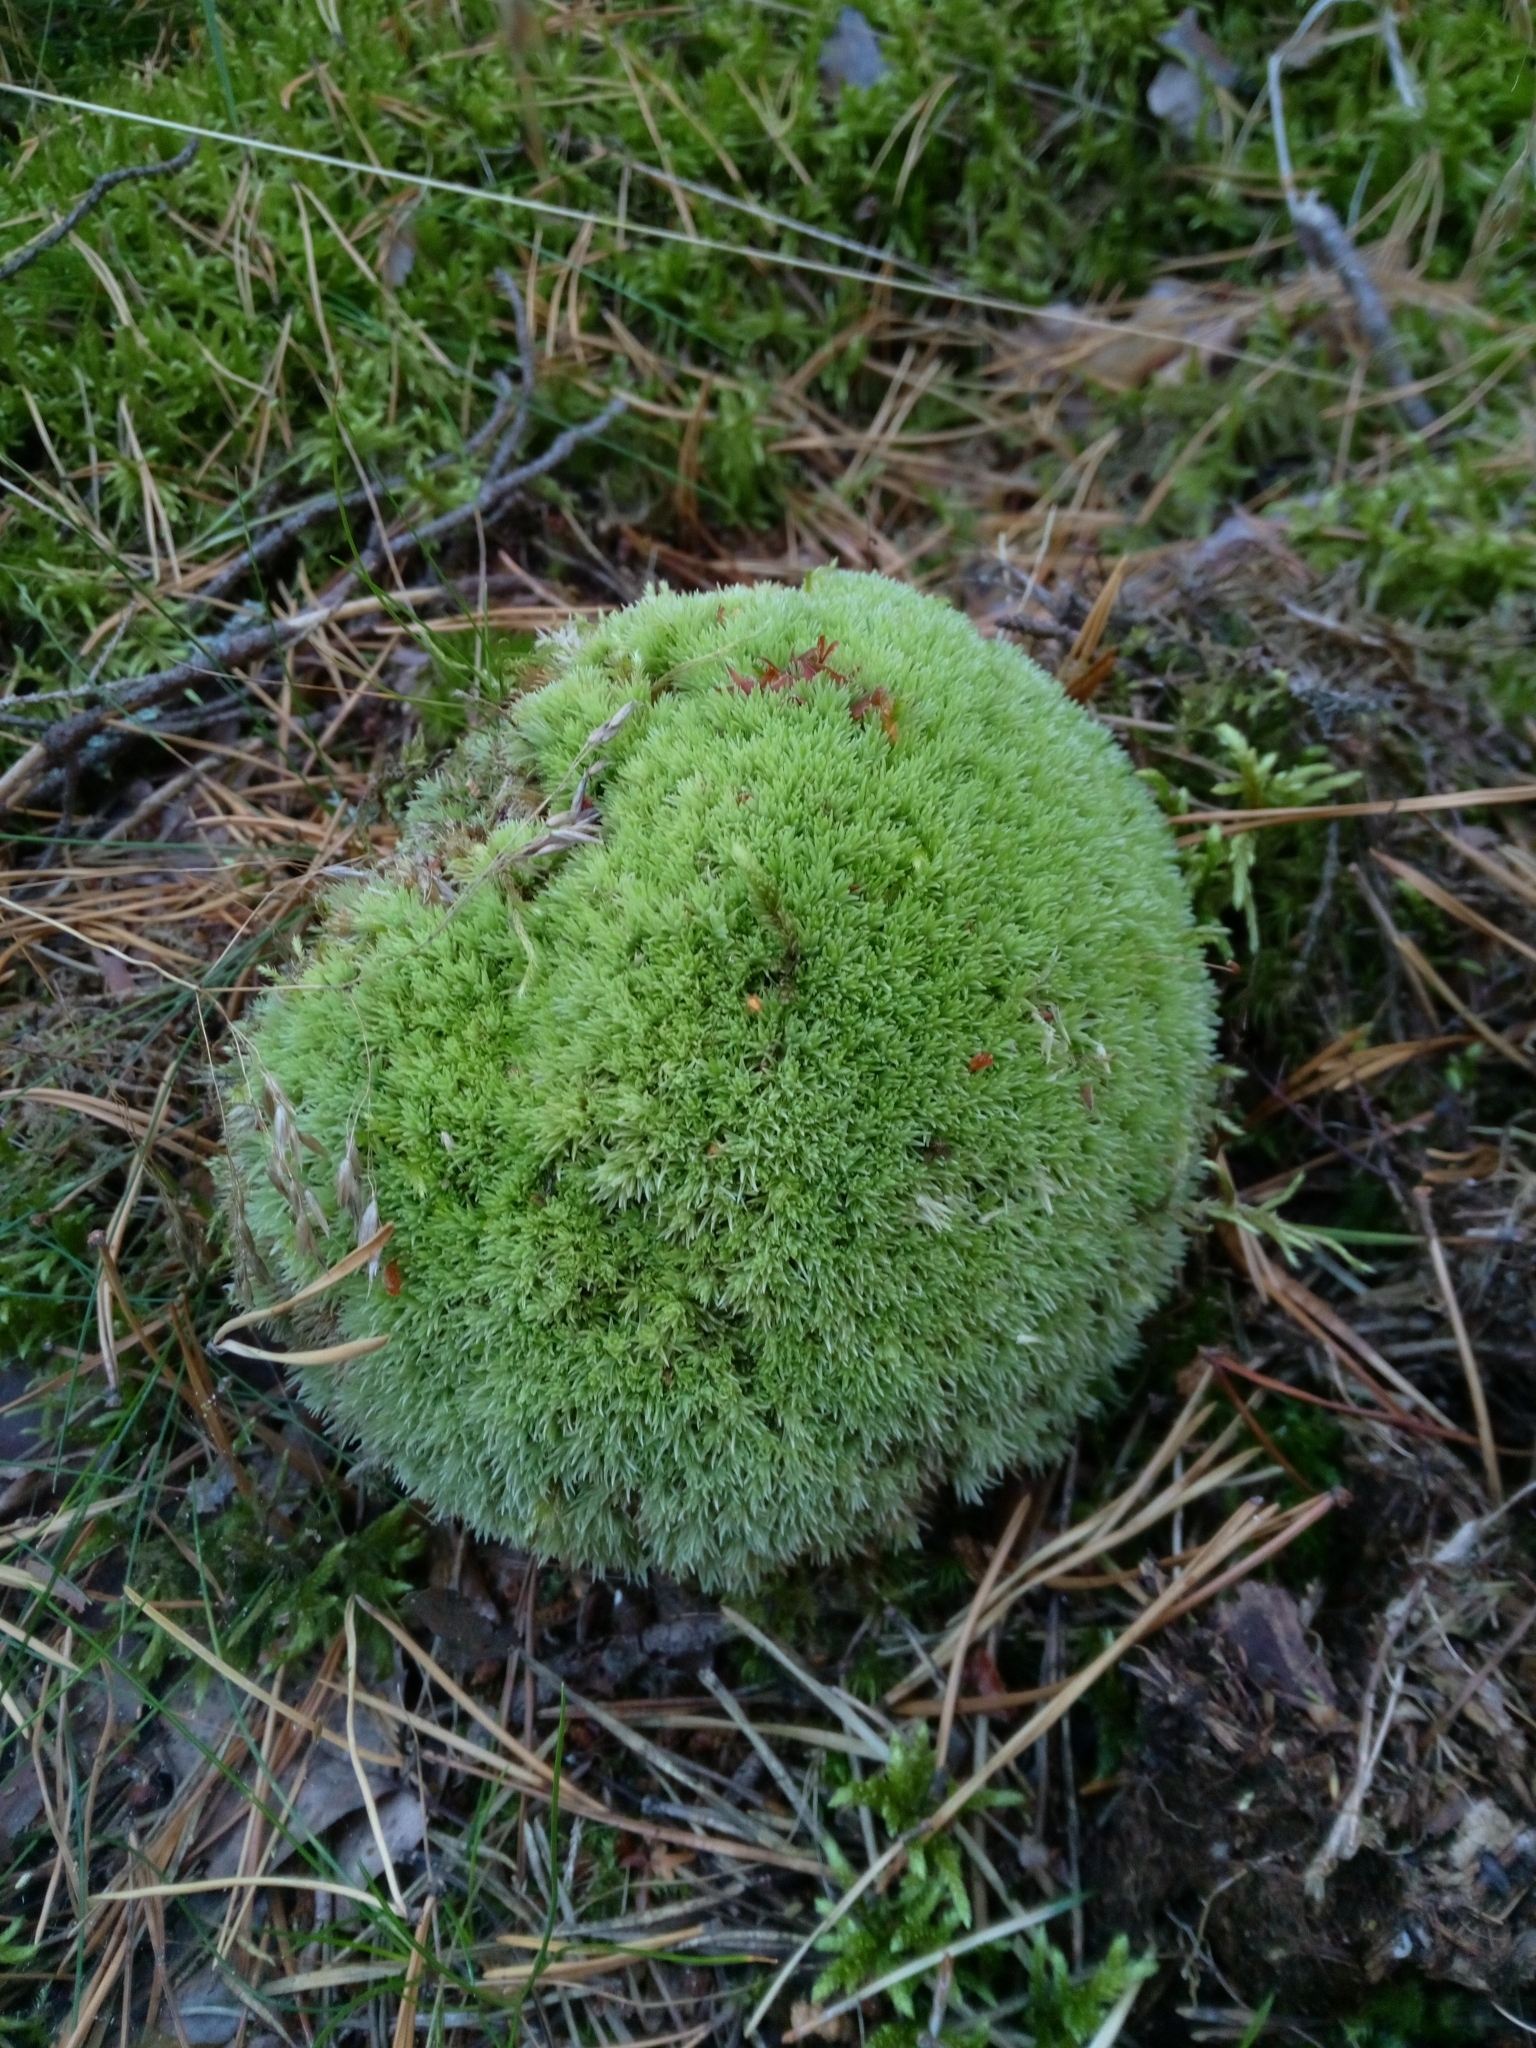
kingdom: Plantae
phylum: Bryophyta
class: Bryopsida
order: Dicranales
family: Leucobryaceae
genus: Leucobryum
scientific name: Leucobryum glaucum
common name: Large white-moss
